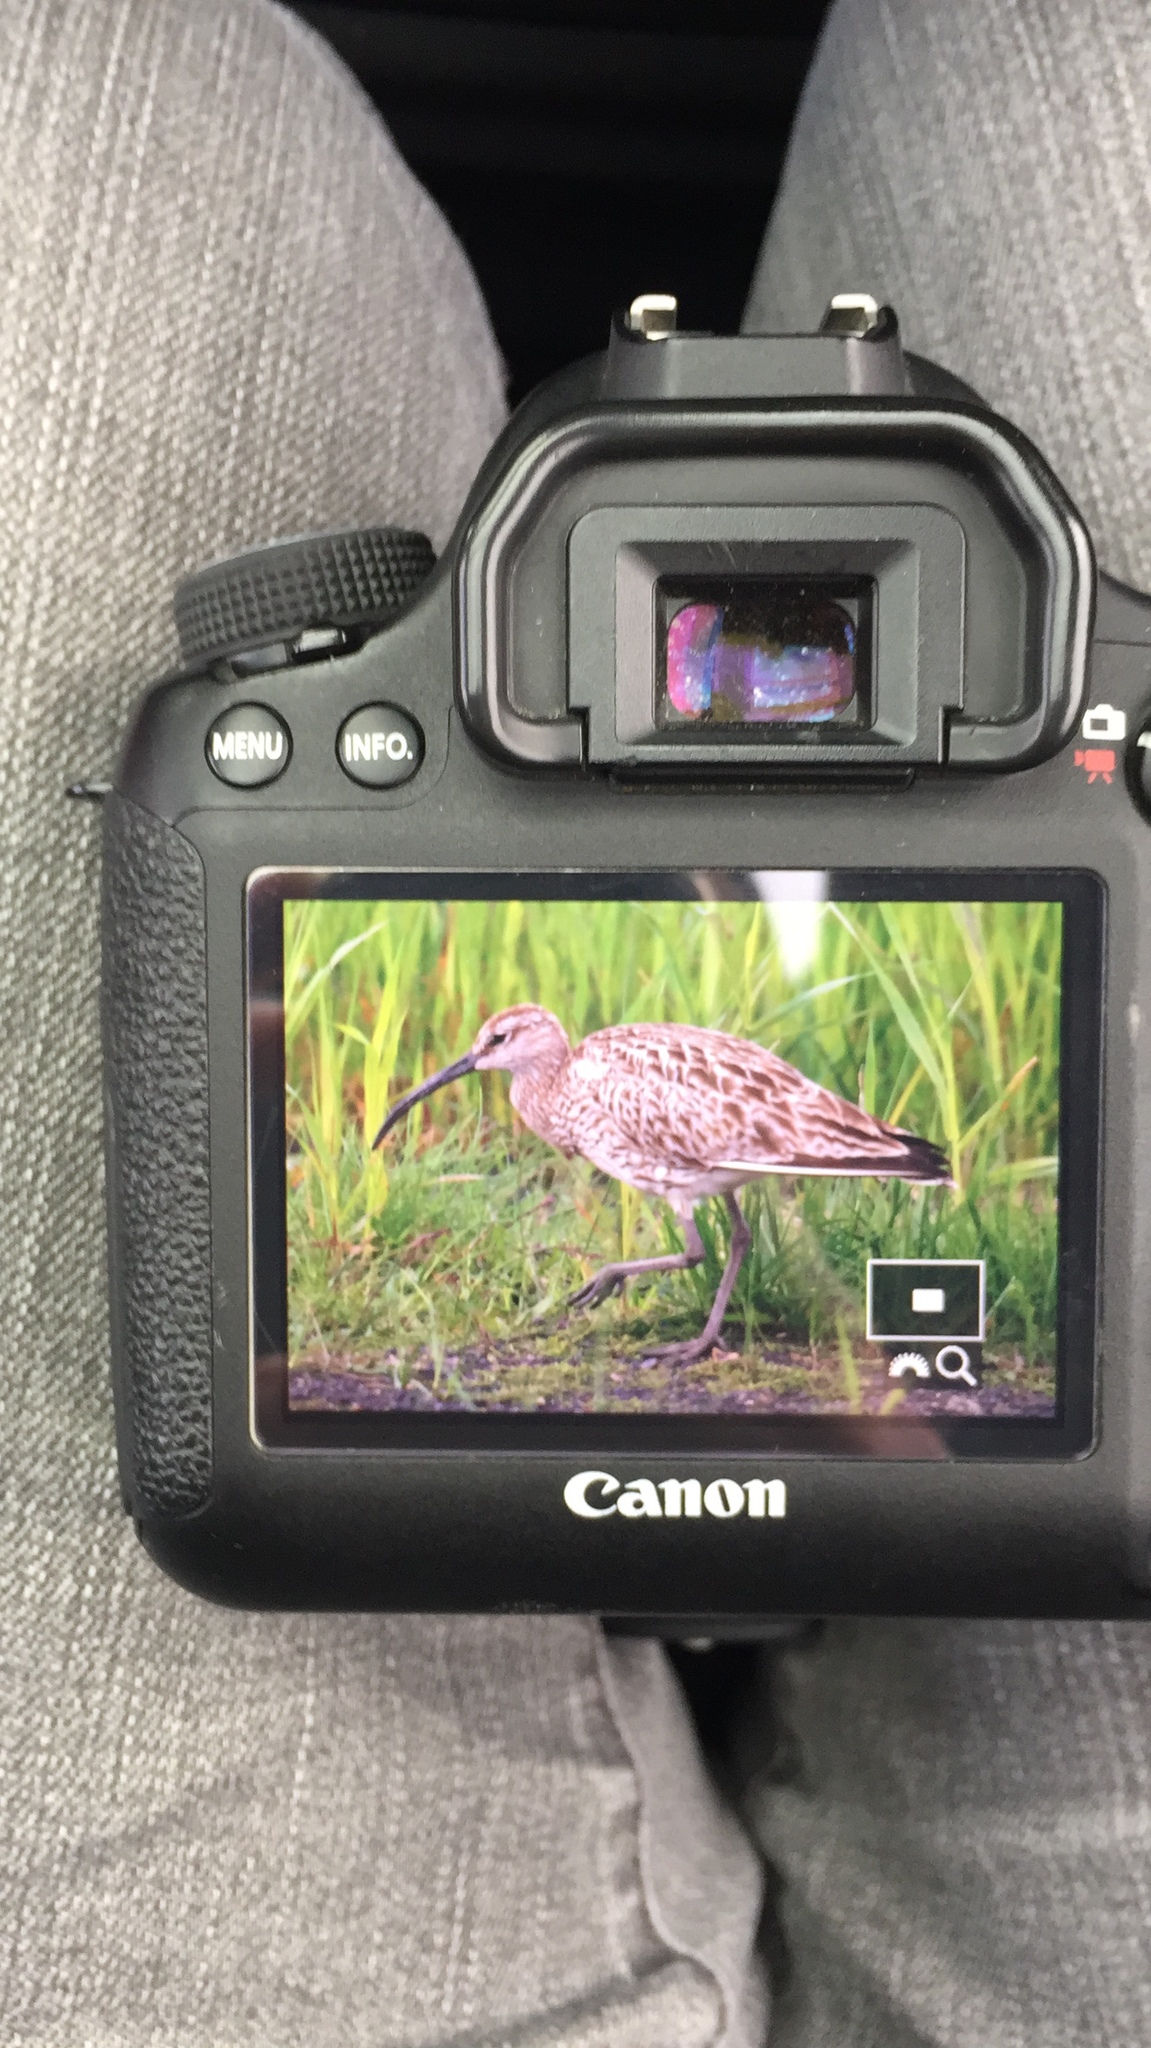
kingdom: Animalia
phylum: Chordata
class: Aves
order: Charadriiformes
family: Scolopacidae
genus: Numenius
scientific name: Numenius phaeopus
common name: Whimbrel
